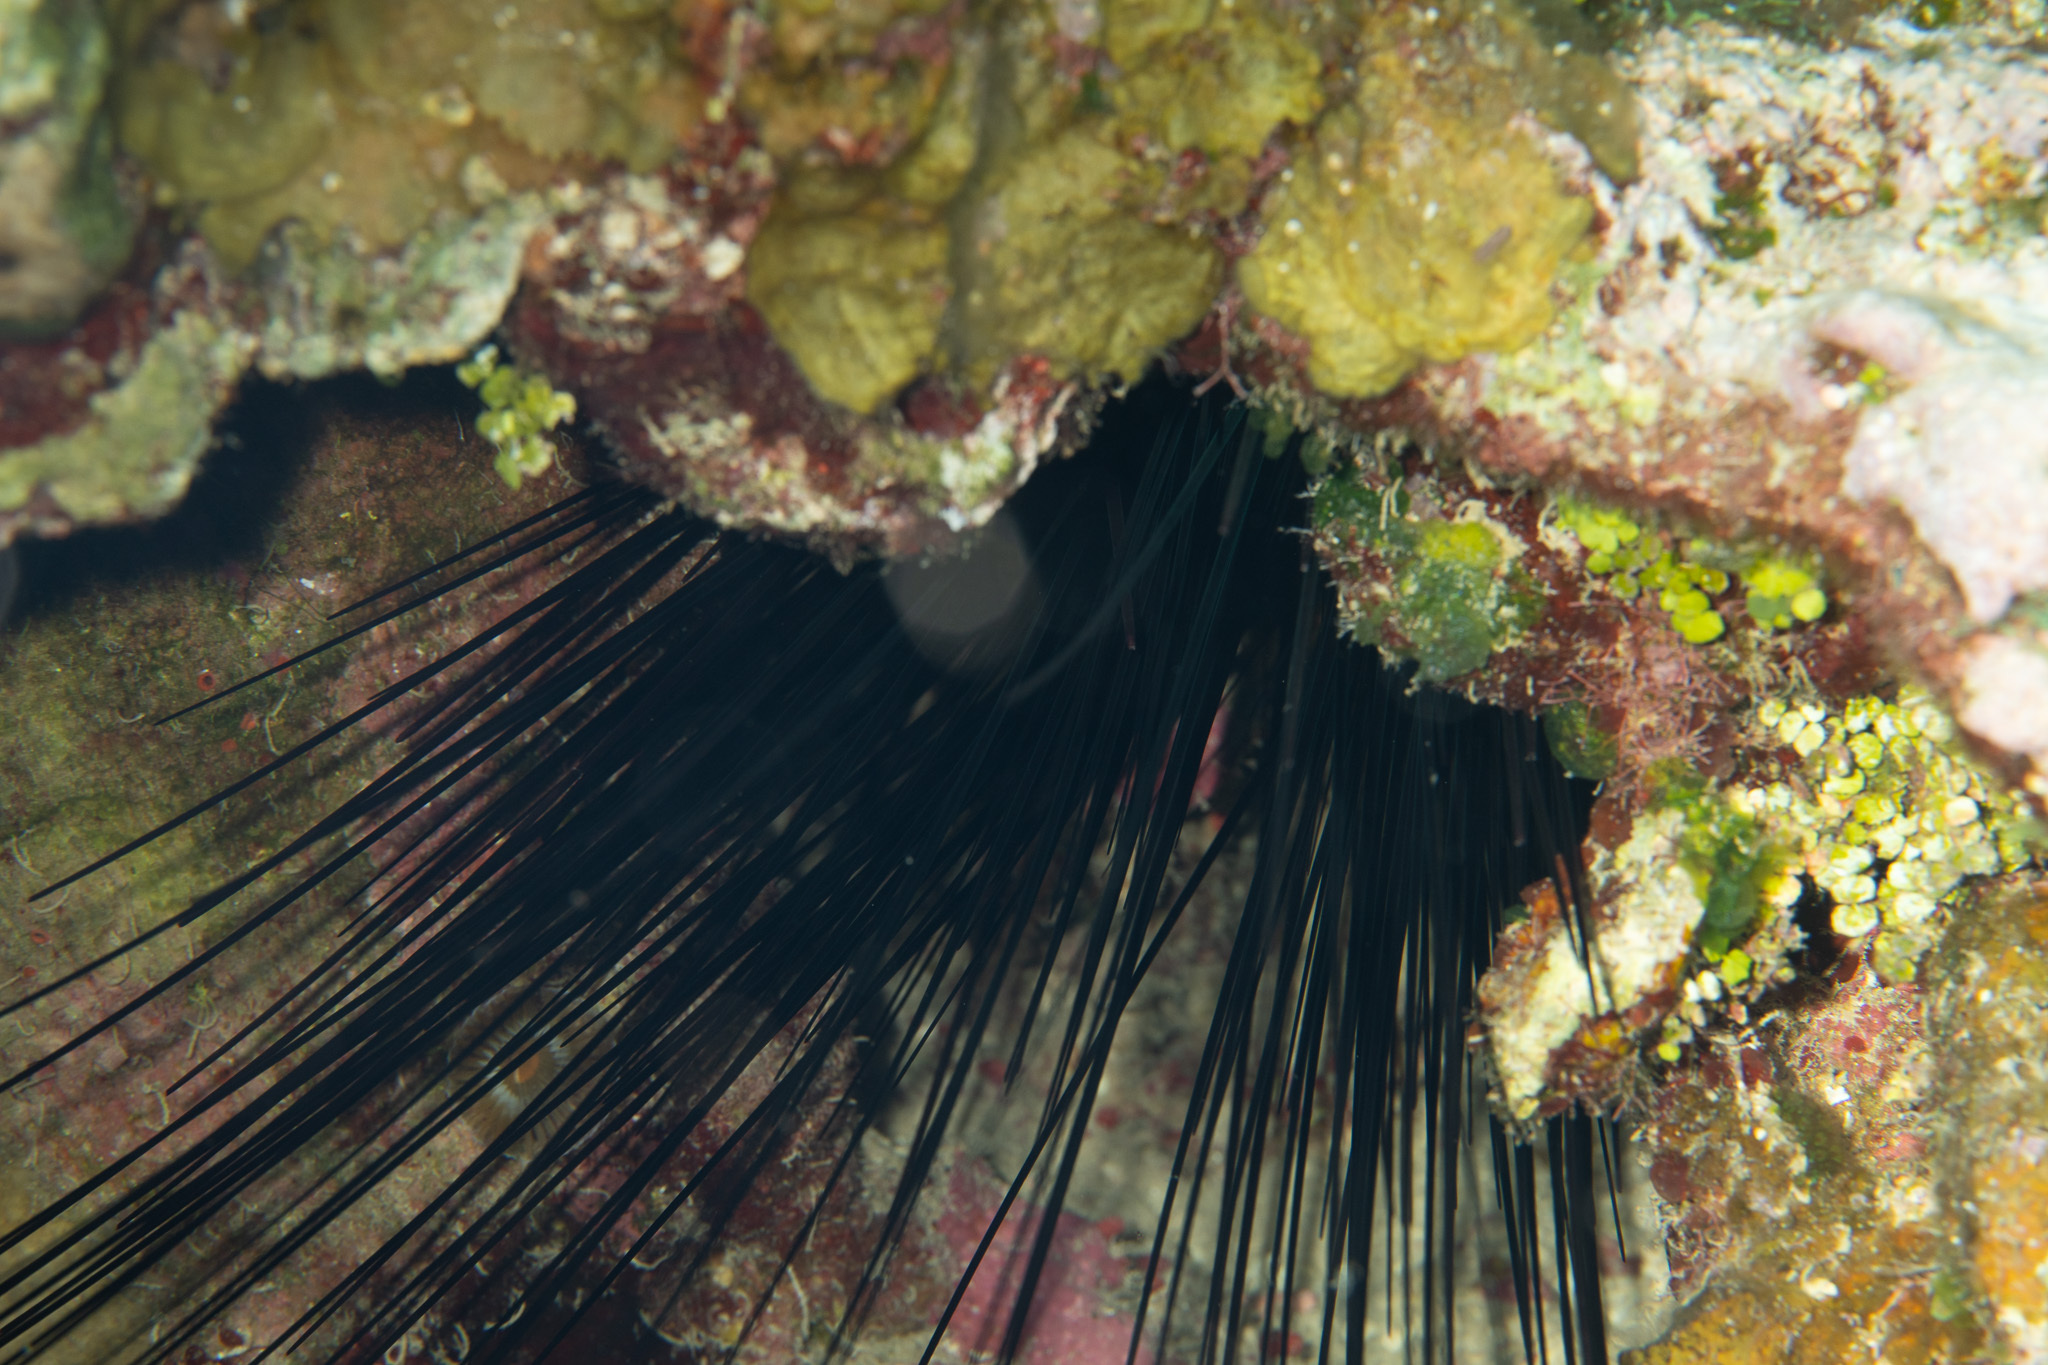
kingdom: Animalia
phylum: Echinodermata
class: Echinoidea
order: Diadematoida
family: Diadematidae
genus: Diadema
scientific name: Diadema antillarum
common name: Spiny urchin
